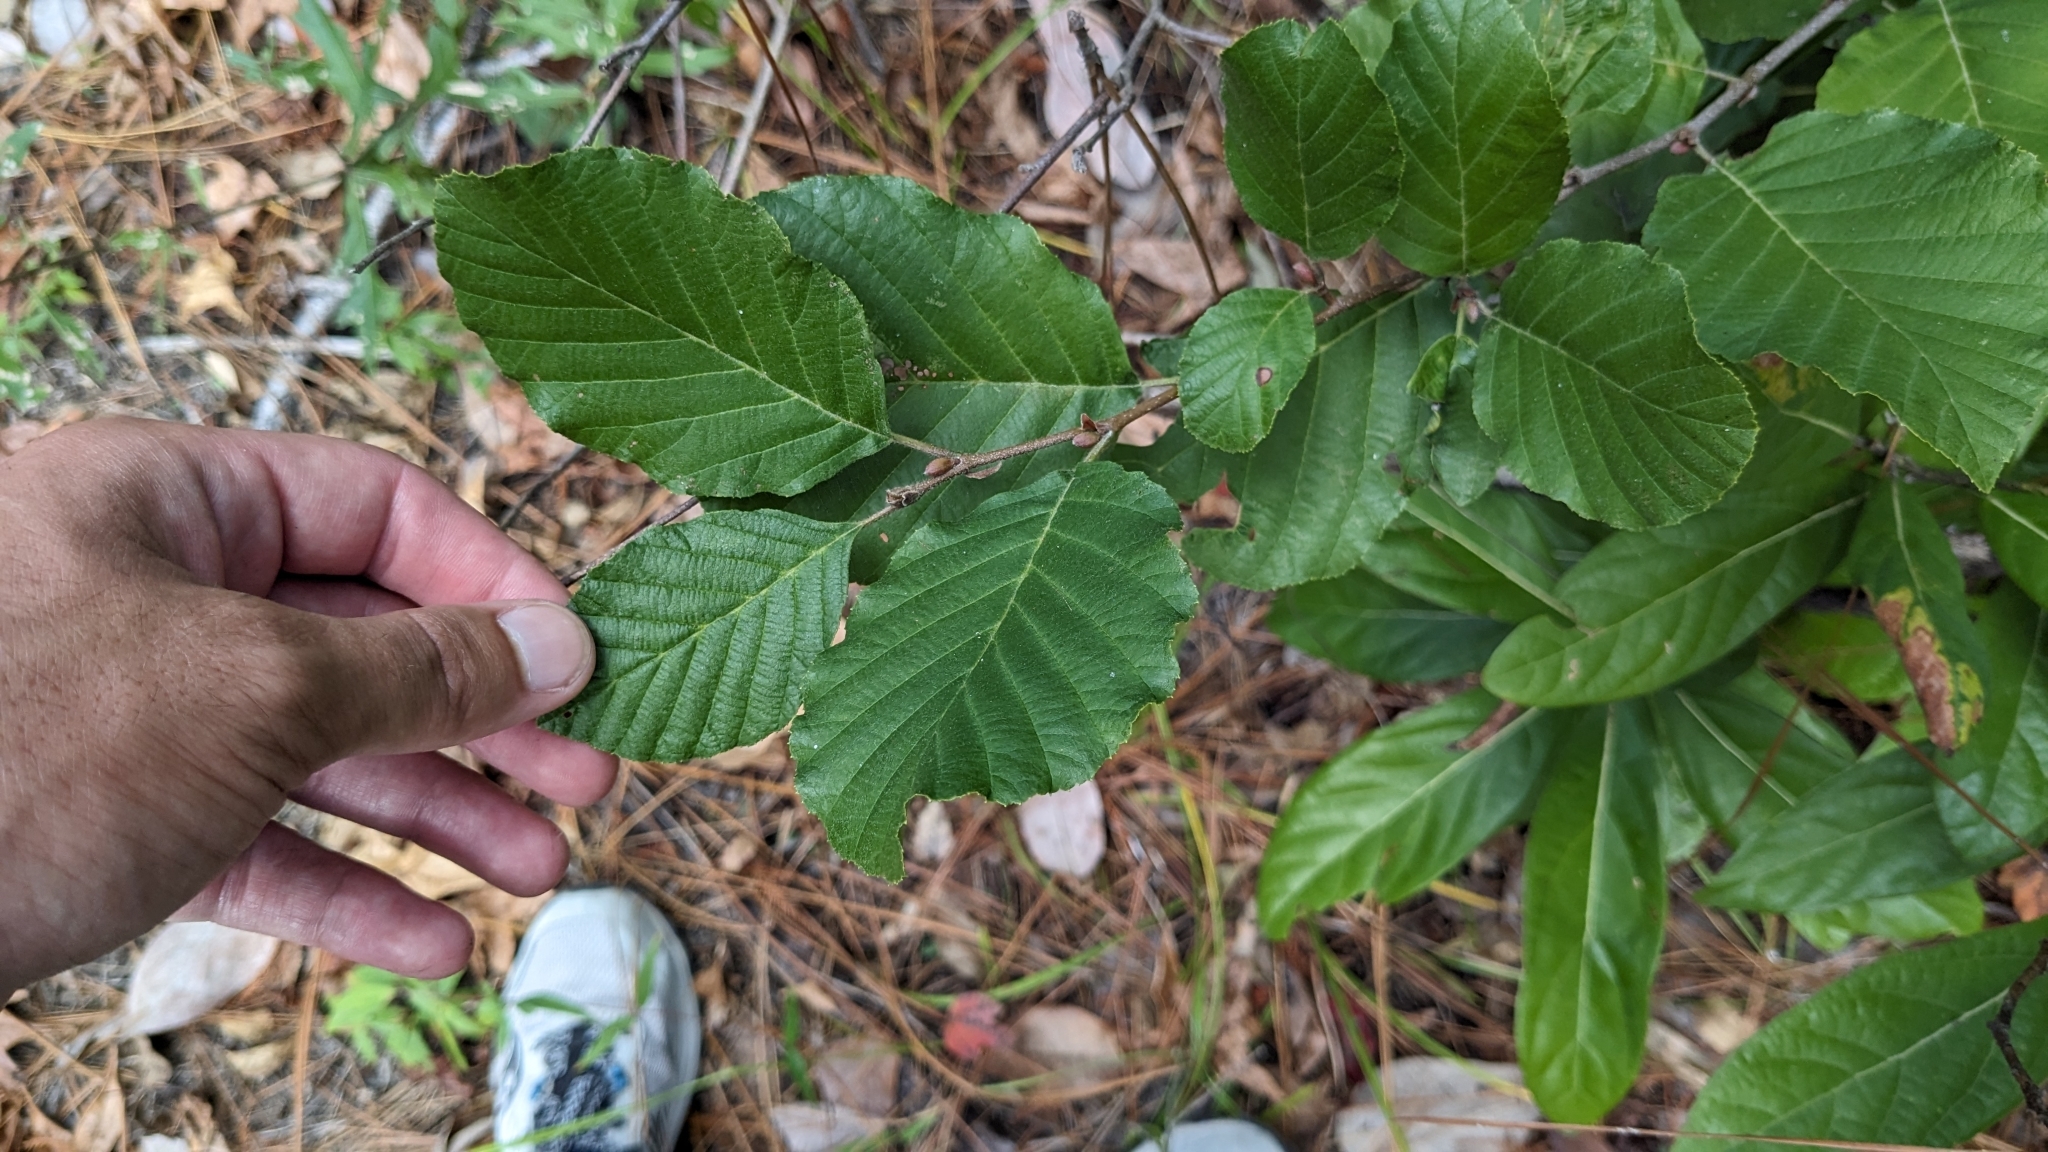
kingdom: Plantae
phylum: Tracheophyta
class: Magnoliopsida
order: Fagales
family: Betulaceae
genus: Alnus
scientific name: Alnus serrulata
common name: Hazel alder
